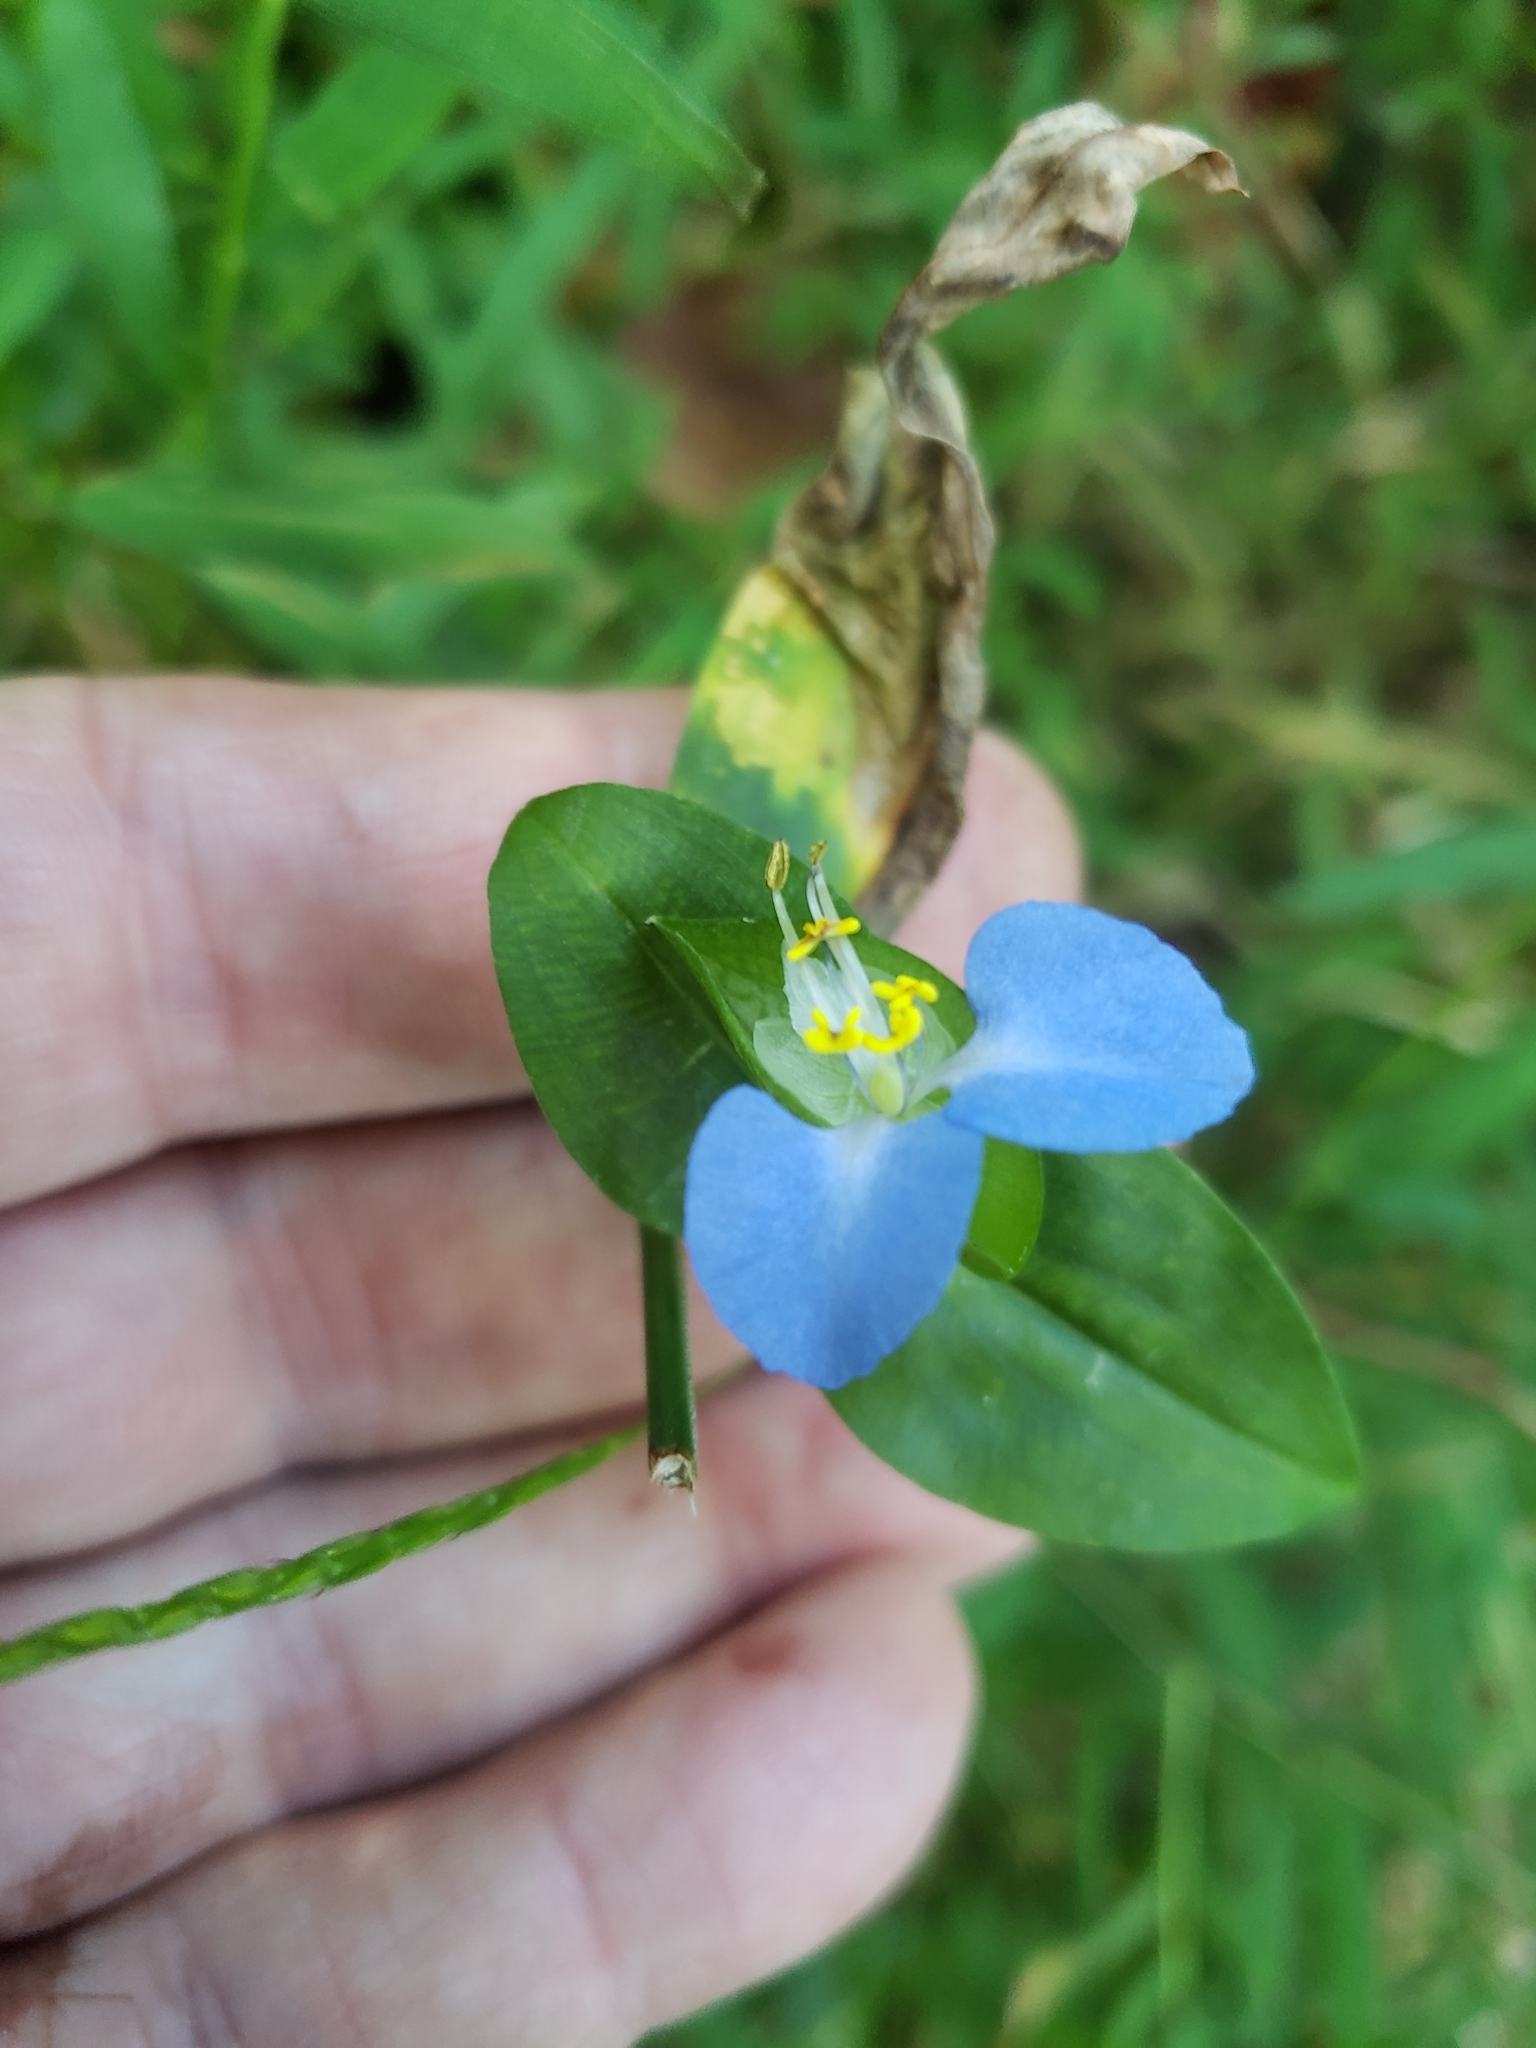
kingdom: Plantae
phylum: Tracheophyta
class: Liliopsida
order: Commelinales
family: Commelinaceae
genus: Commelina
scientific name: Commelina communis
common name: Asiatic dayflower
